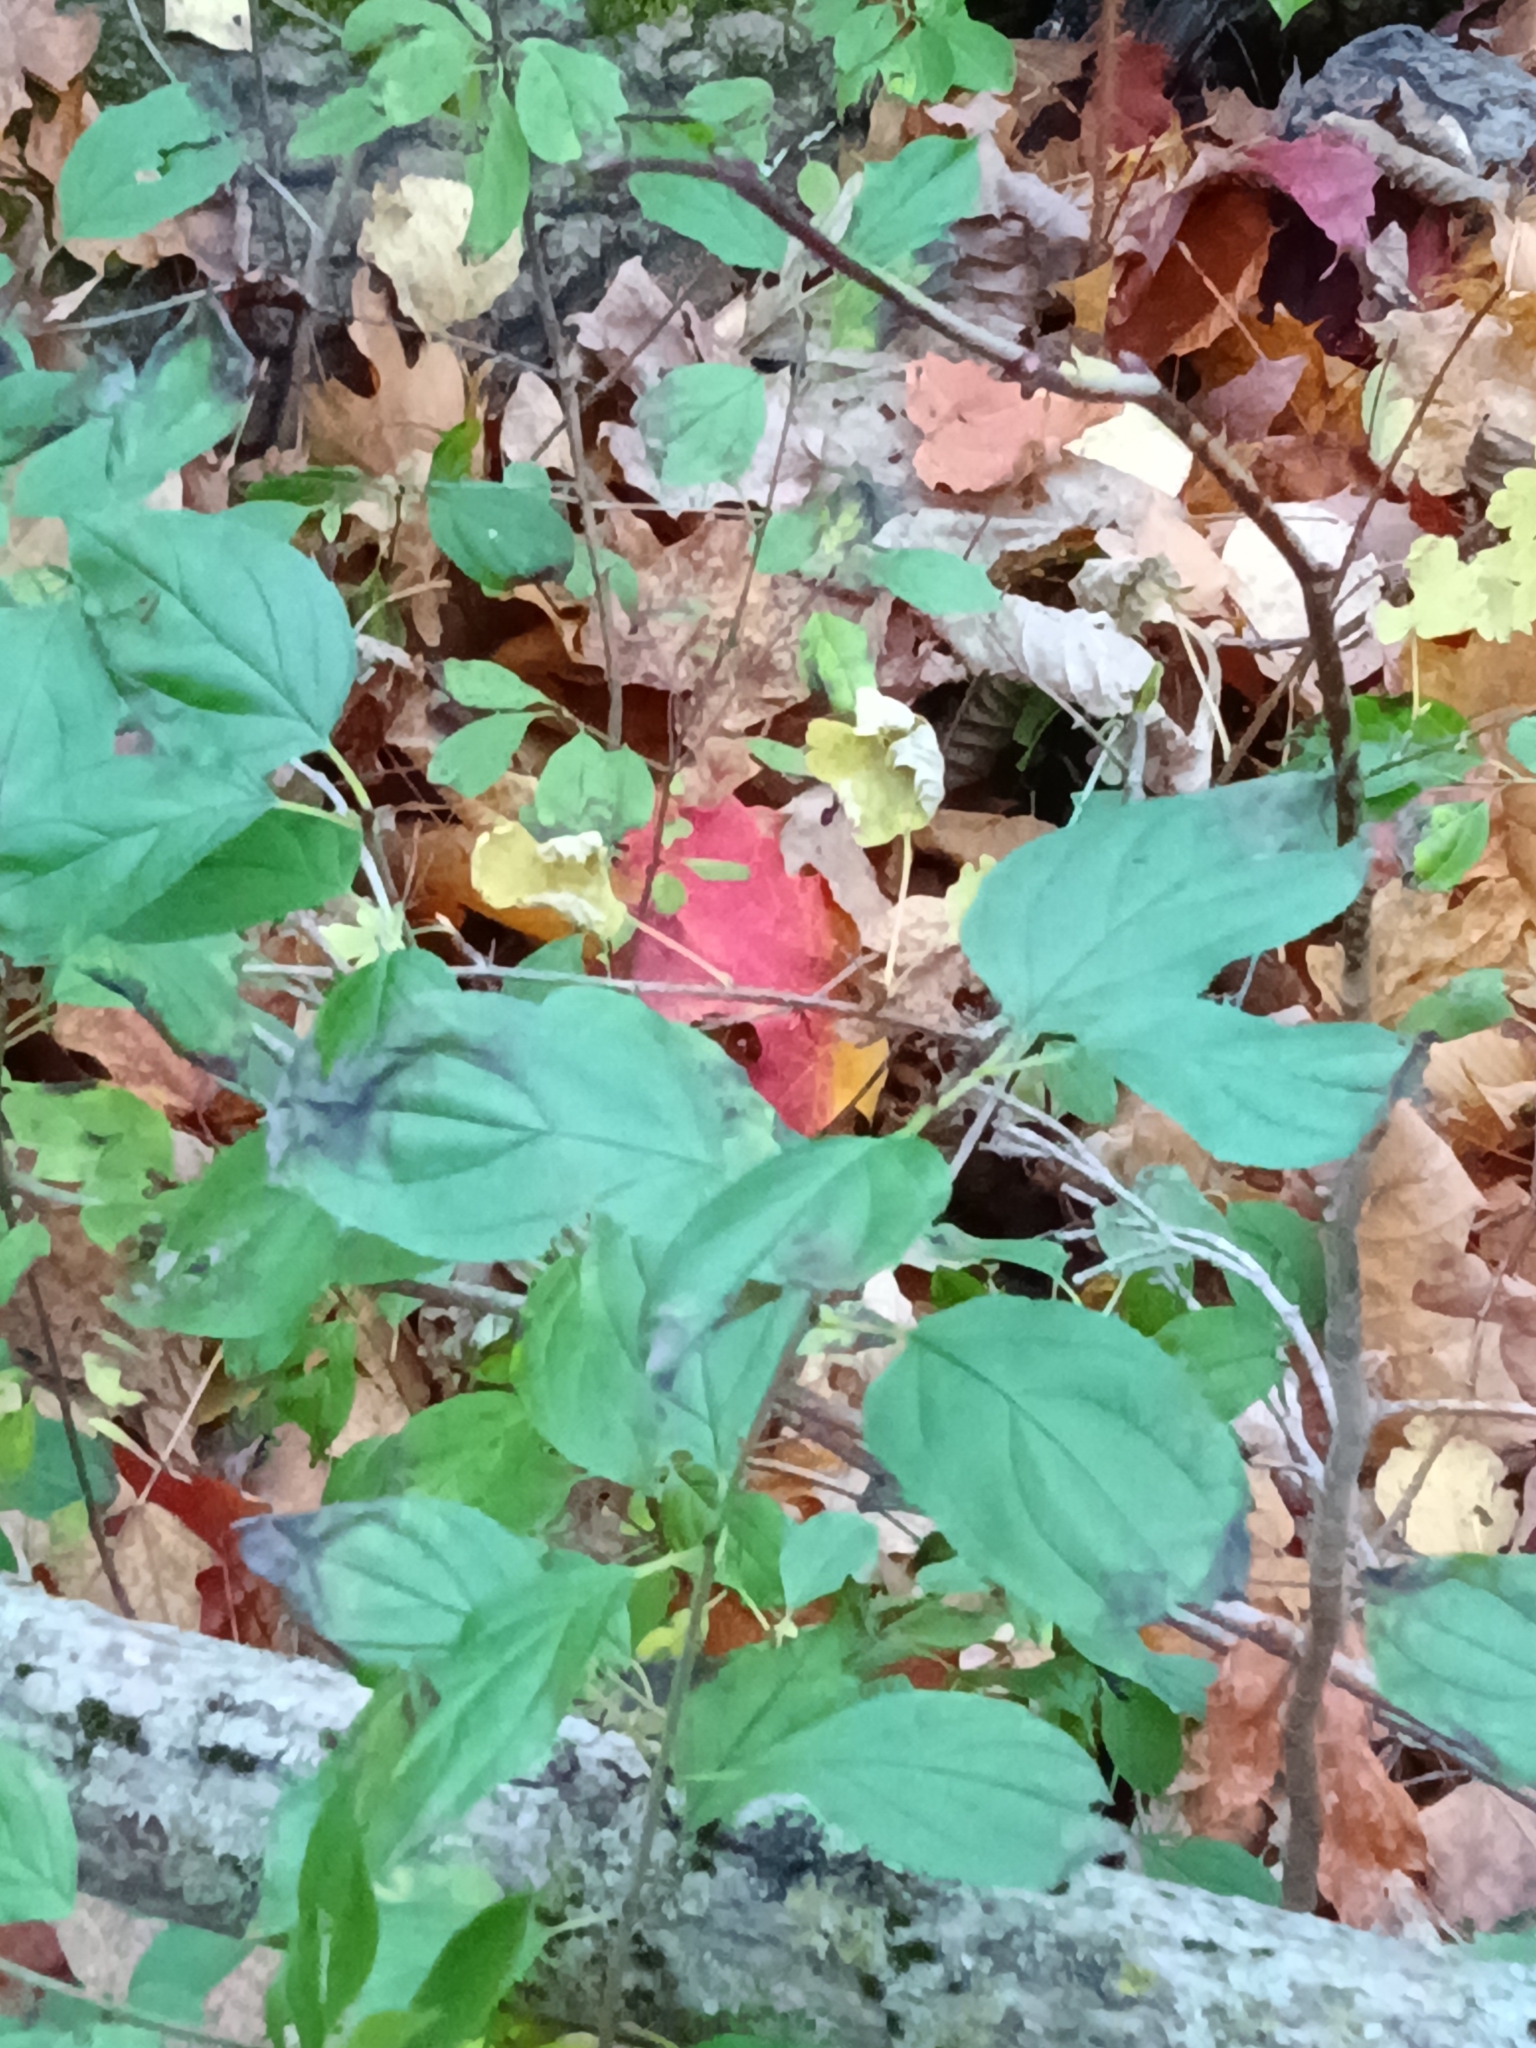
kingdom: Plantae
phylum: Tracheophyta
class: Magnoliopsida
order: Rosales
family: Rhamnaceae
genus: Rhamnus
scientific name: Rhamnus cathartica
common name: Common buckthorn
